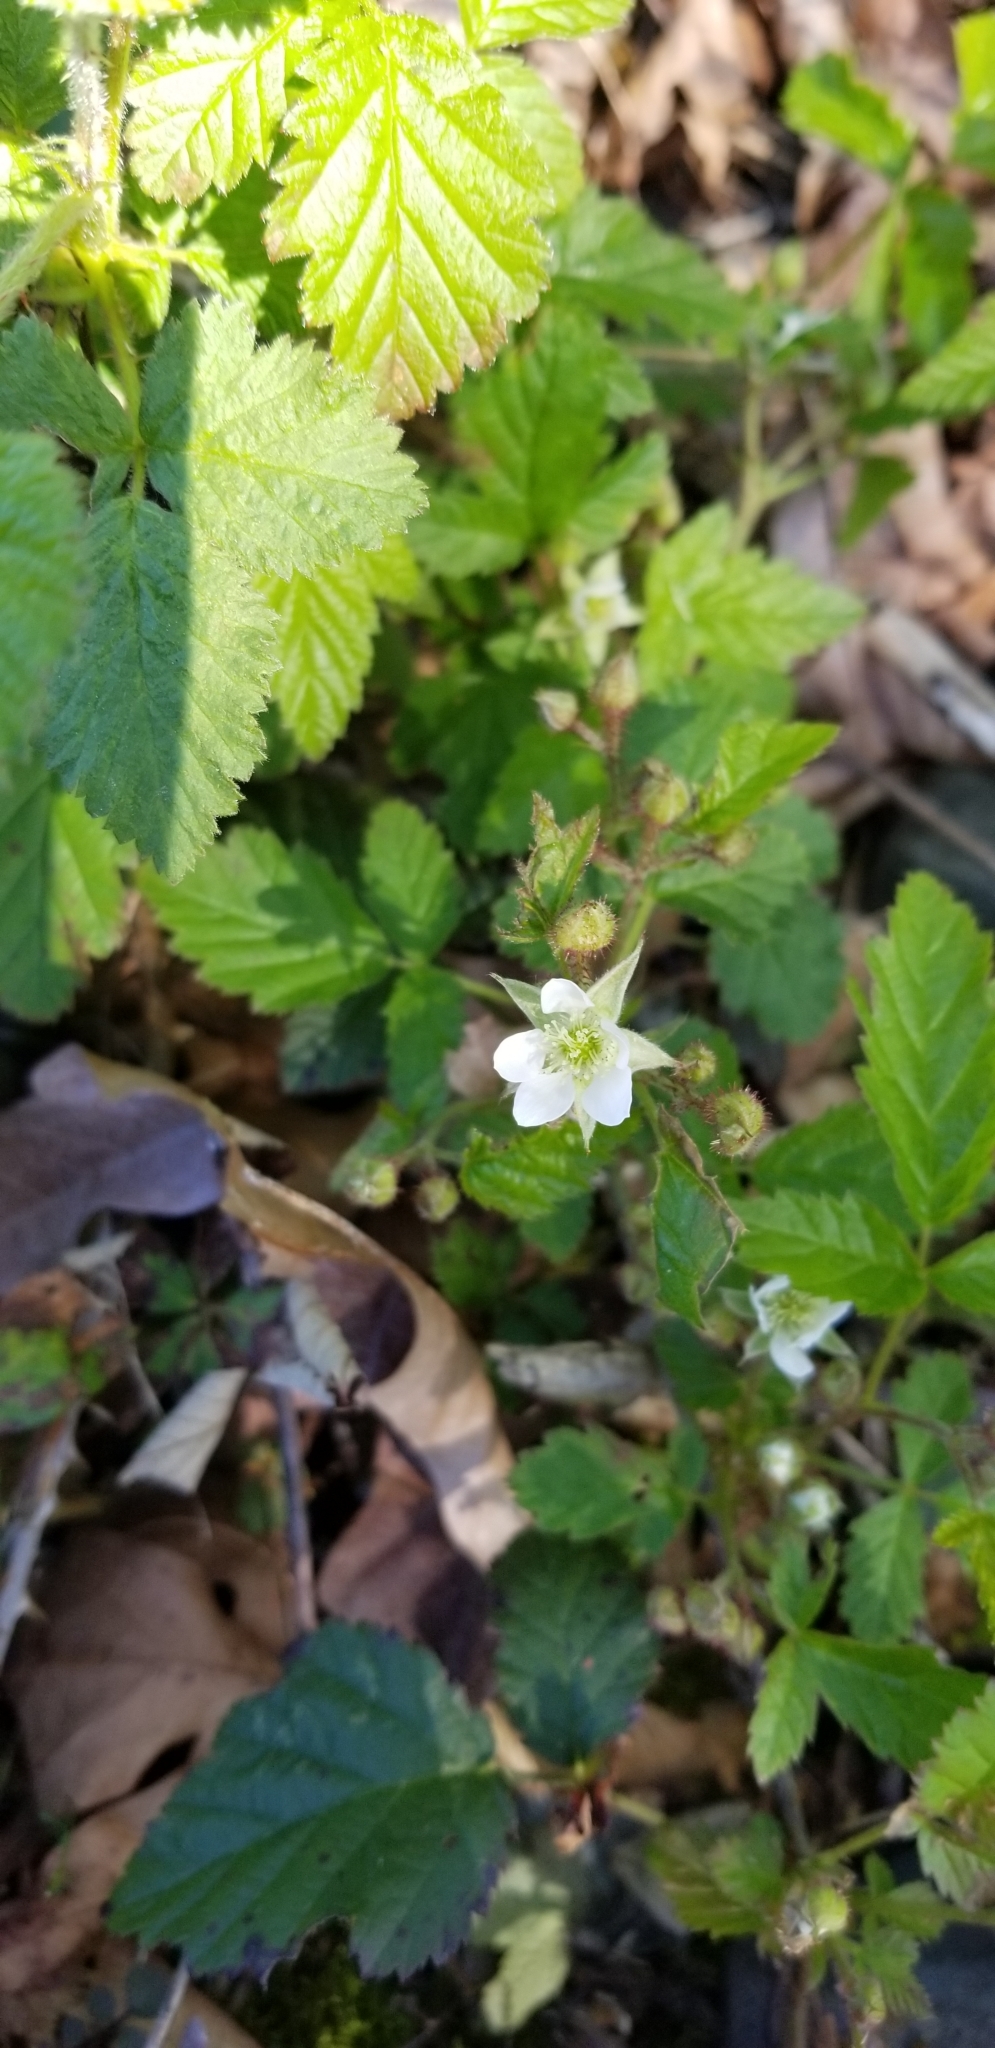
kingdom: Plantae
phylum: Tracheophyta
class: Magnoliopsida
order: Rosales
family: Rosaceae
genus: Rubus
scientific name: Rubus ursinus
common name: Pacific blackberry
